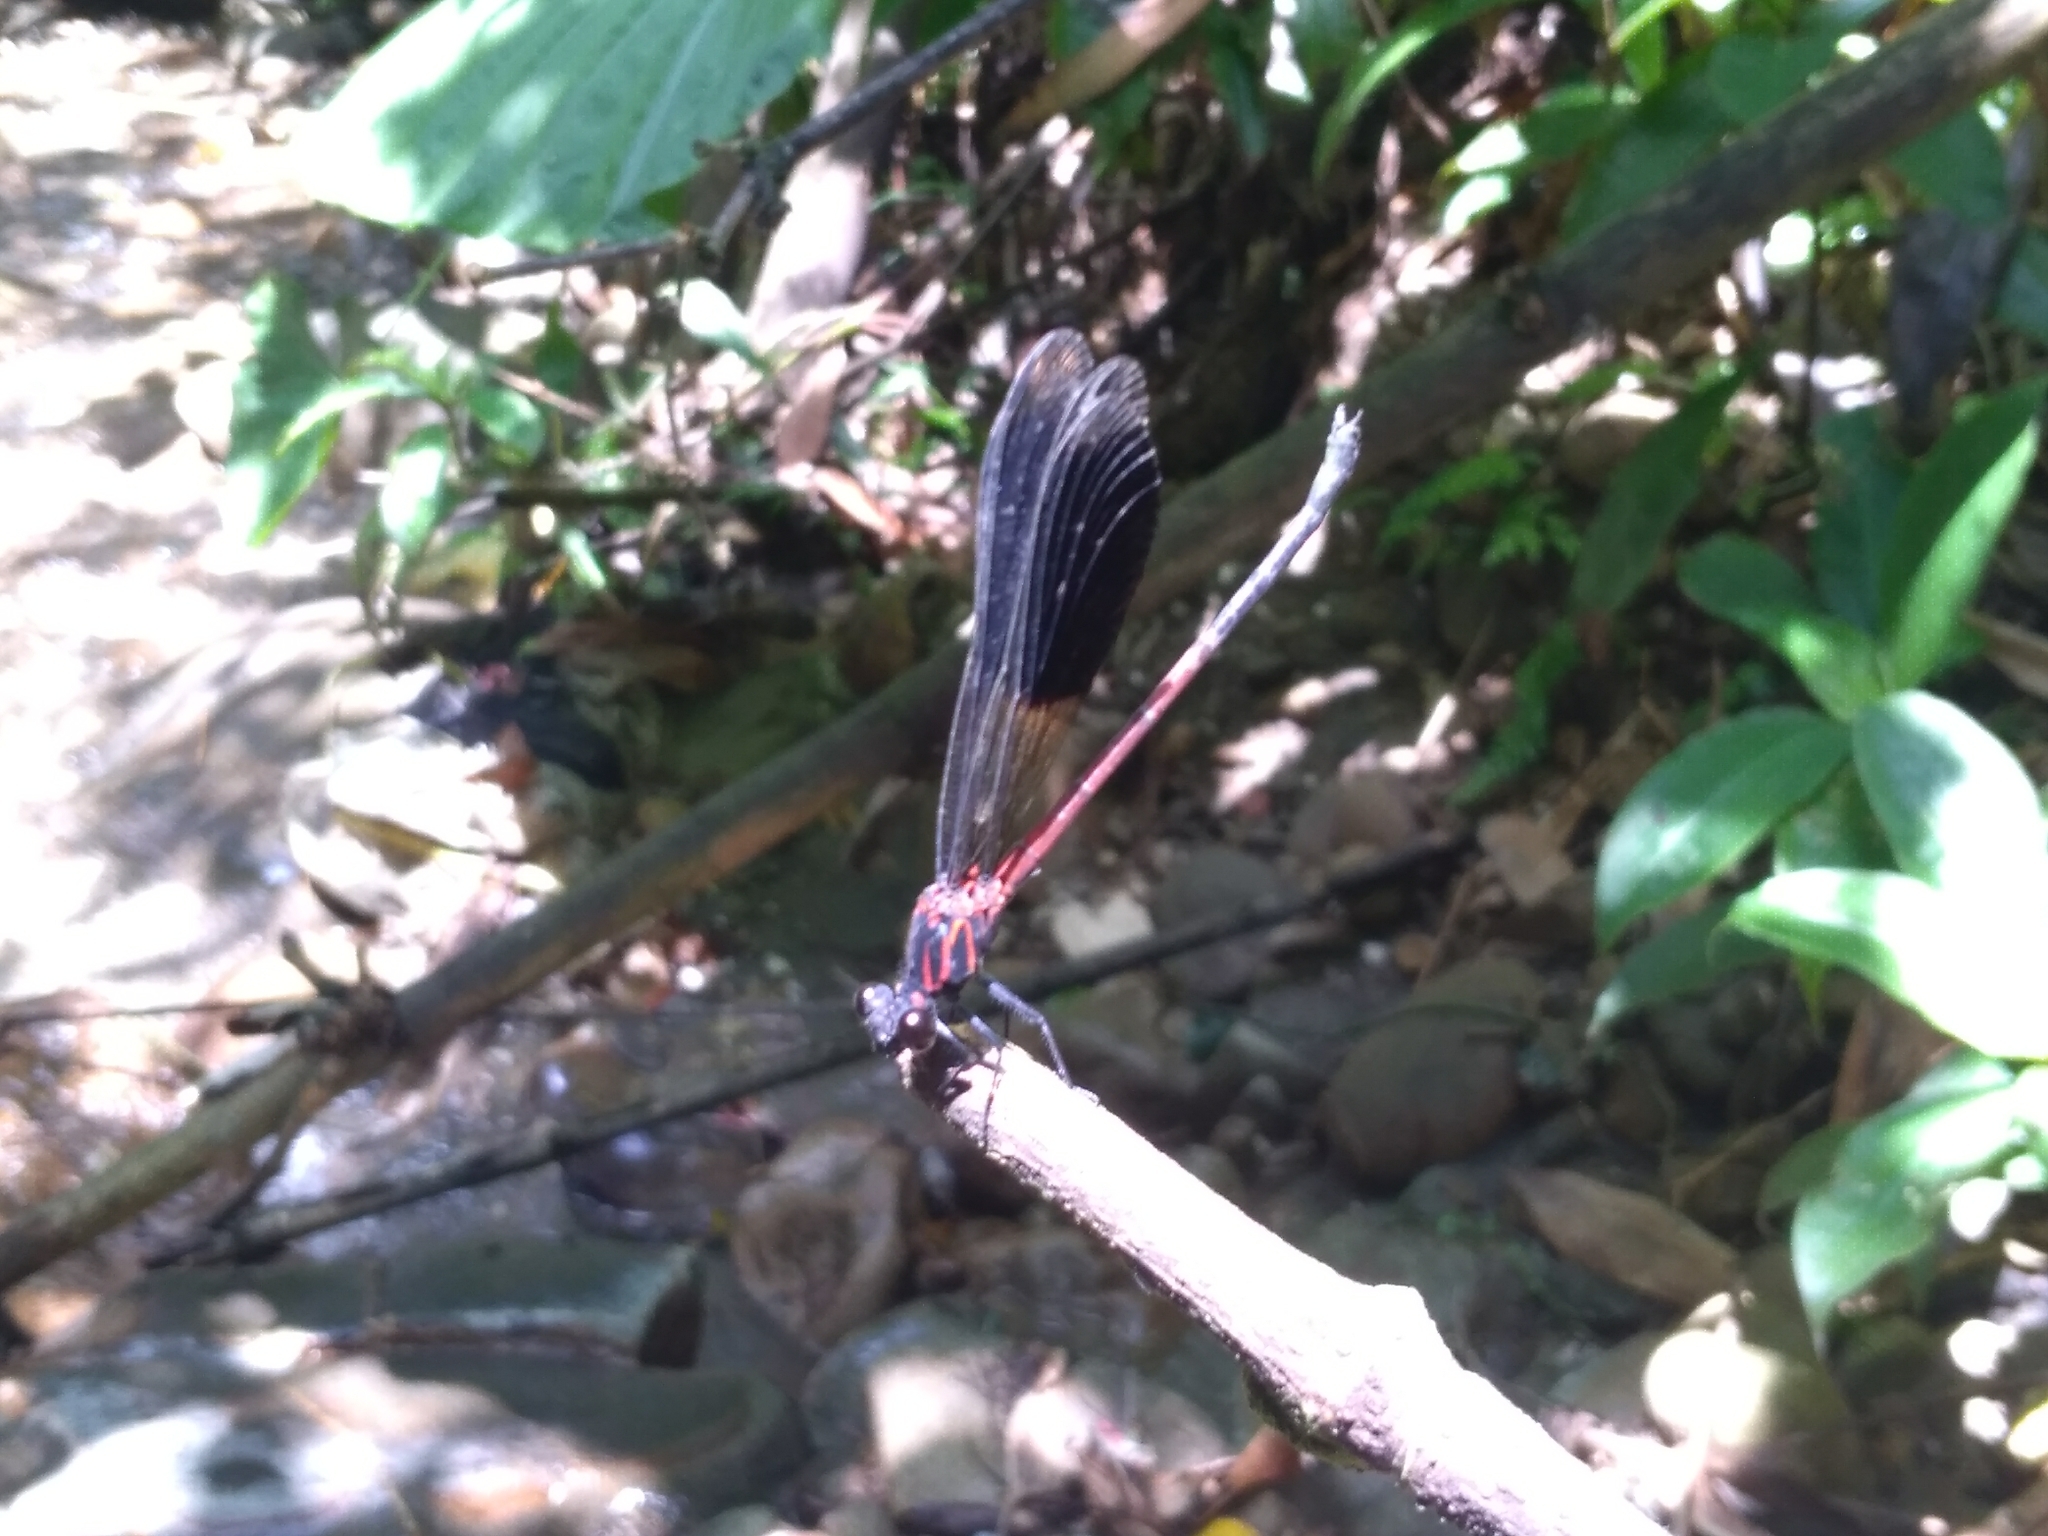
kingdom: Animalia
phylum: Arthropoda
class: Insecta
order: Odonata
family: Euphaeidae
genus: Euphaea
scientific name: Euphaea formosa
